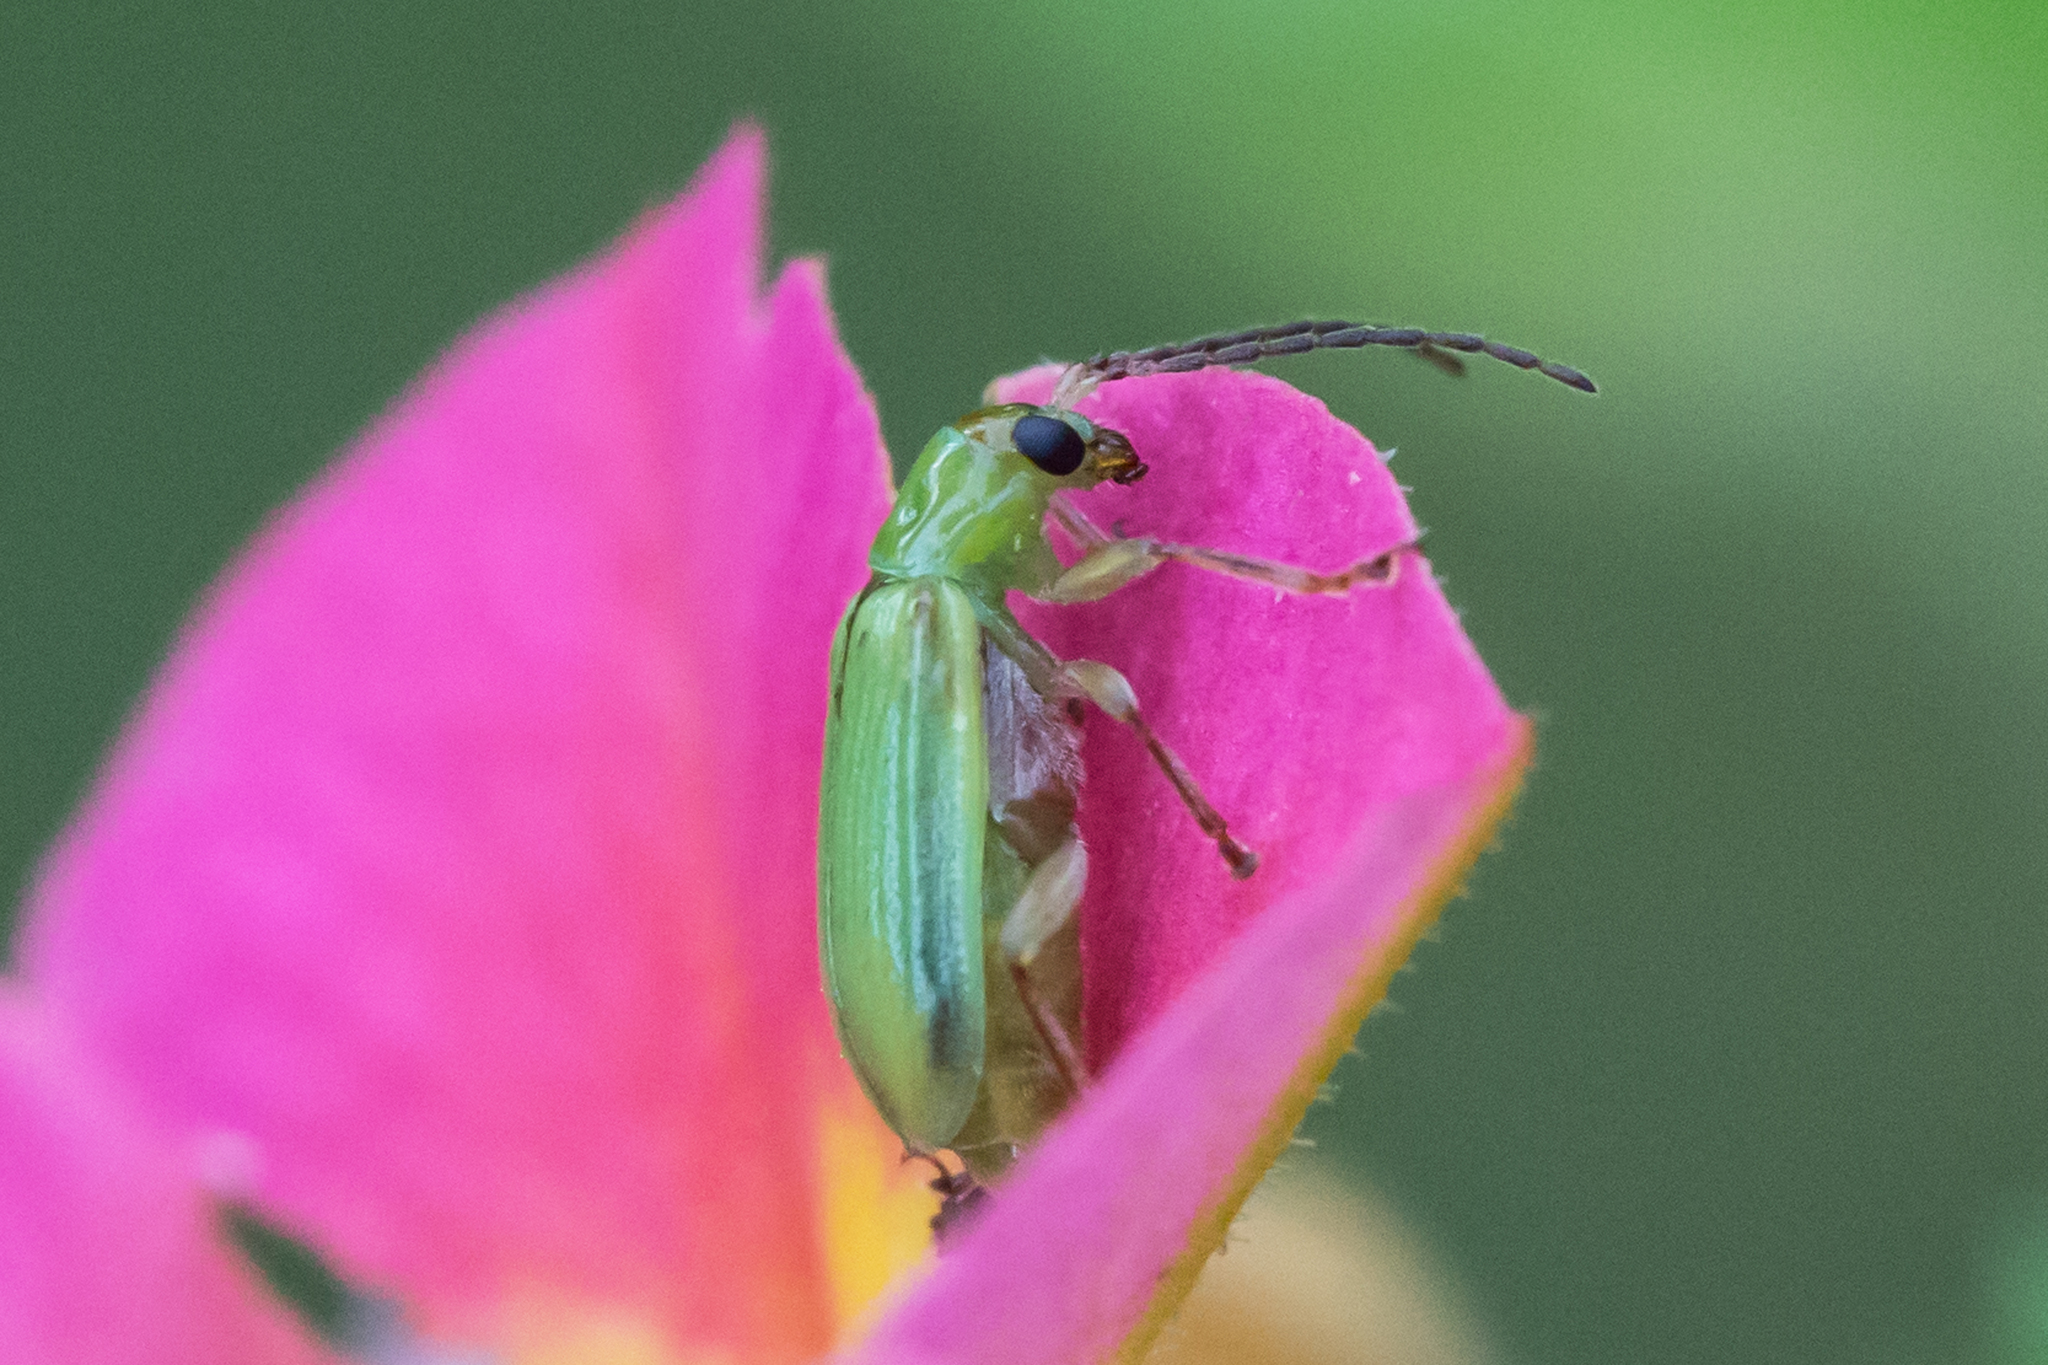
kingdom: Animalia
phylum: Arthropoda
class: Insecta
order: Coleoptera
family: Chrysomelidae
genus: Diabrotica
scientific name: Diabrotica barberi
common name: Northern corn rootworm
